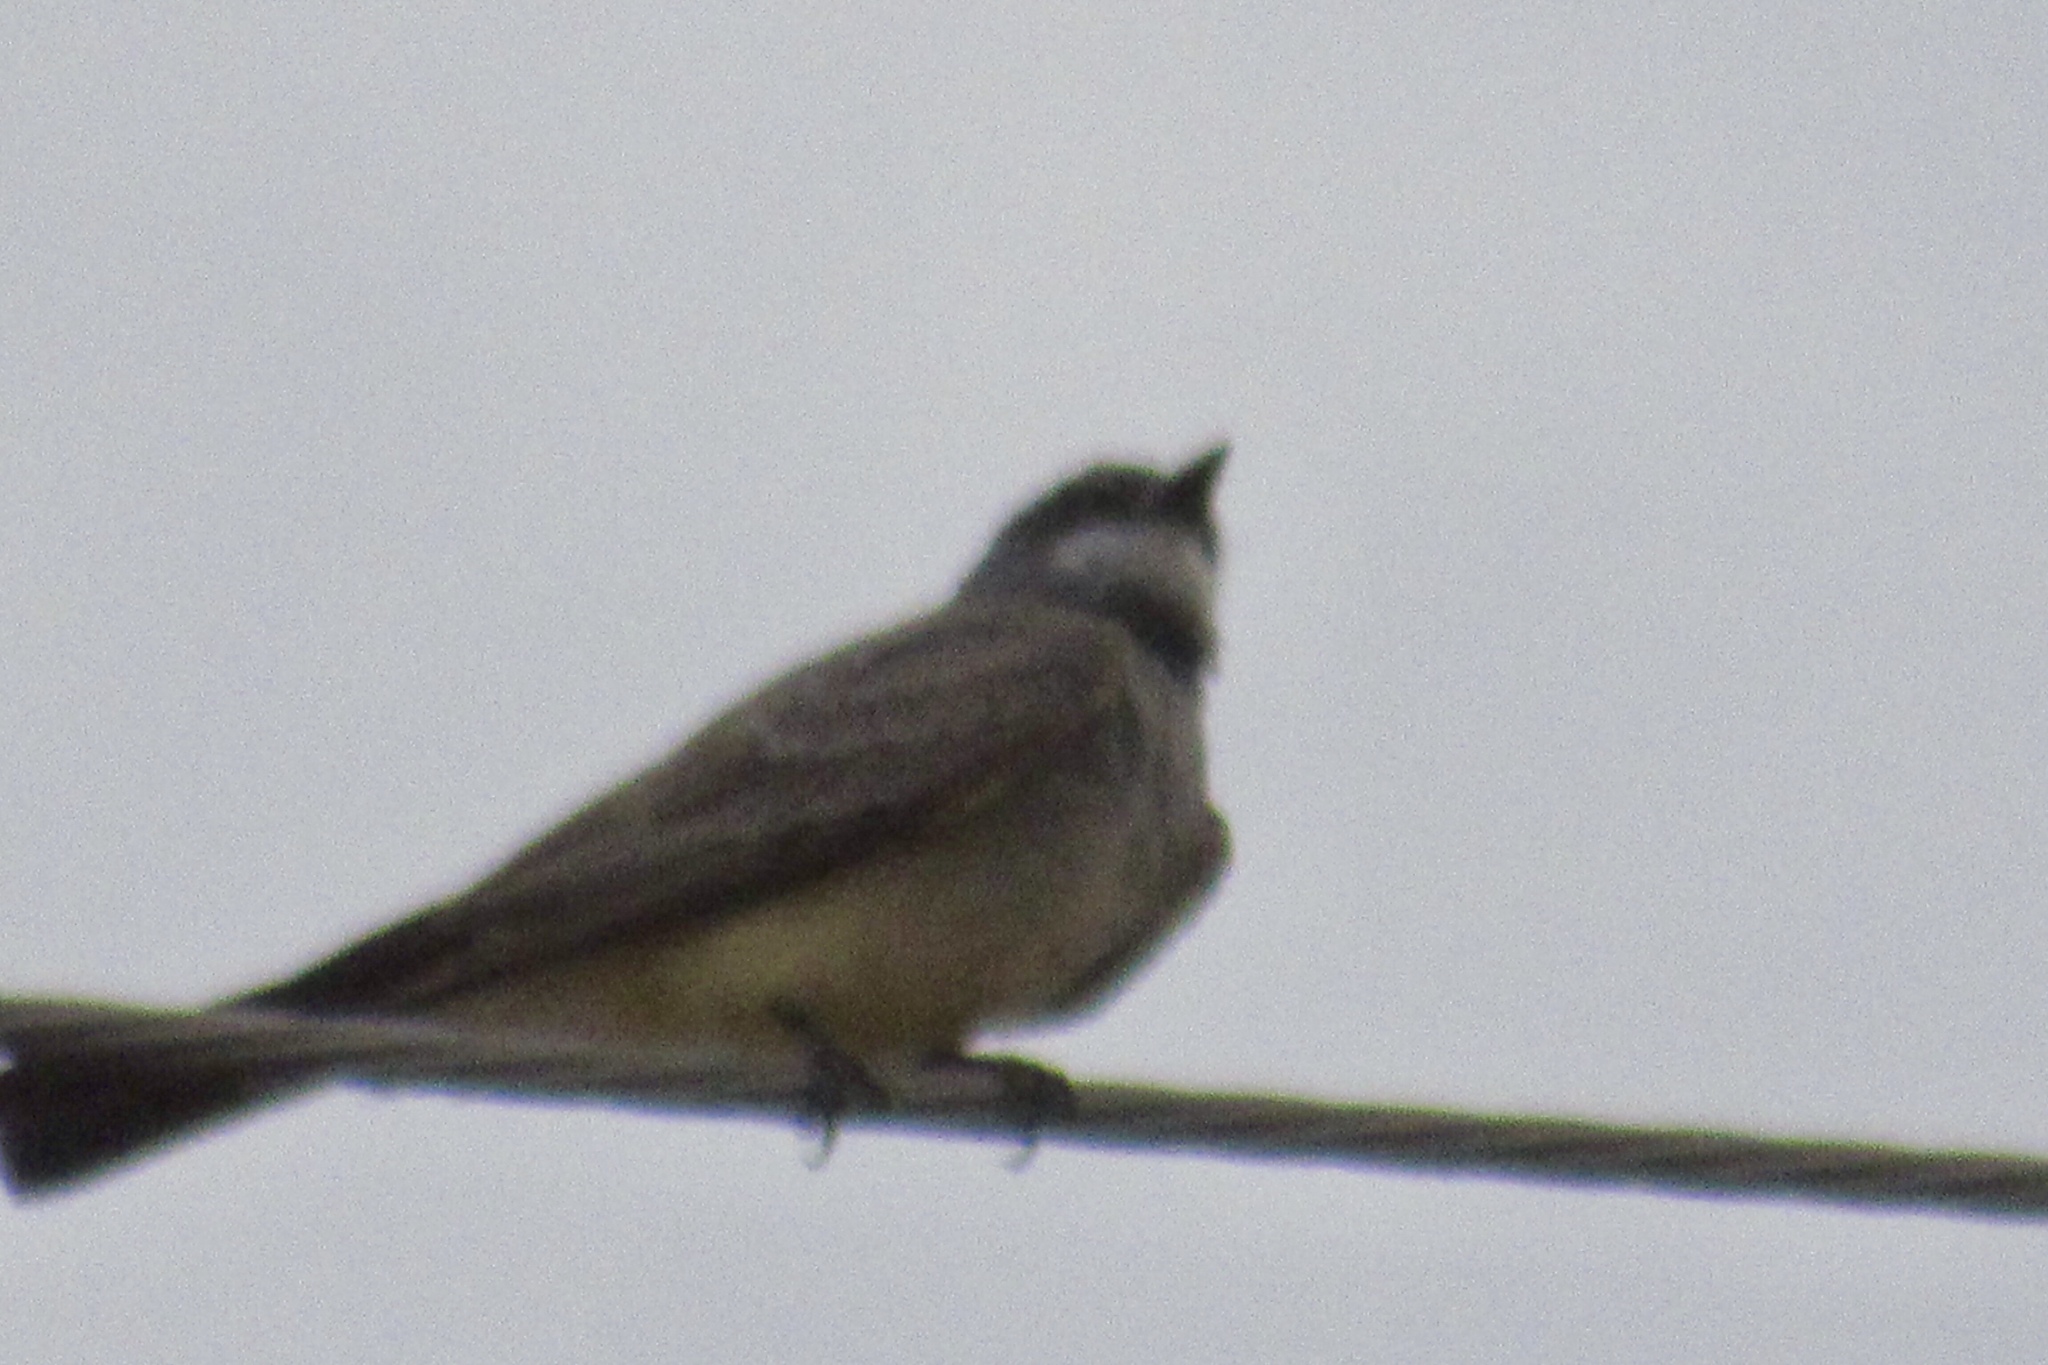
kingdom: Animalia
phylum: Chordata
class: Aves
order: Passeriformes
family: Tyrannidae
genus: Tyrannus
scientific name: Tyrannus vociferans
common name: Cassin's kingbird
